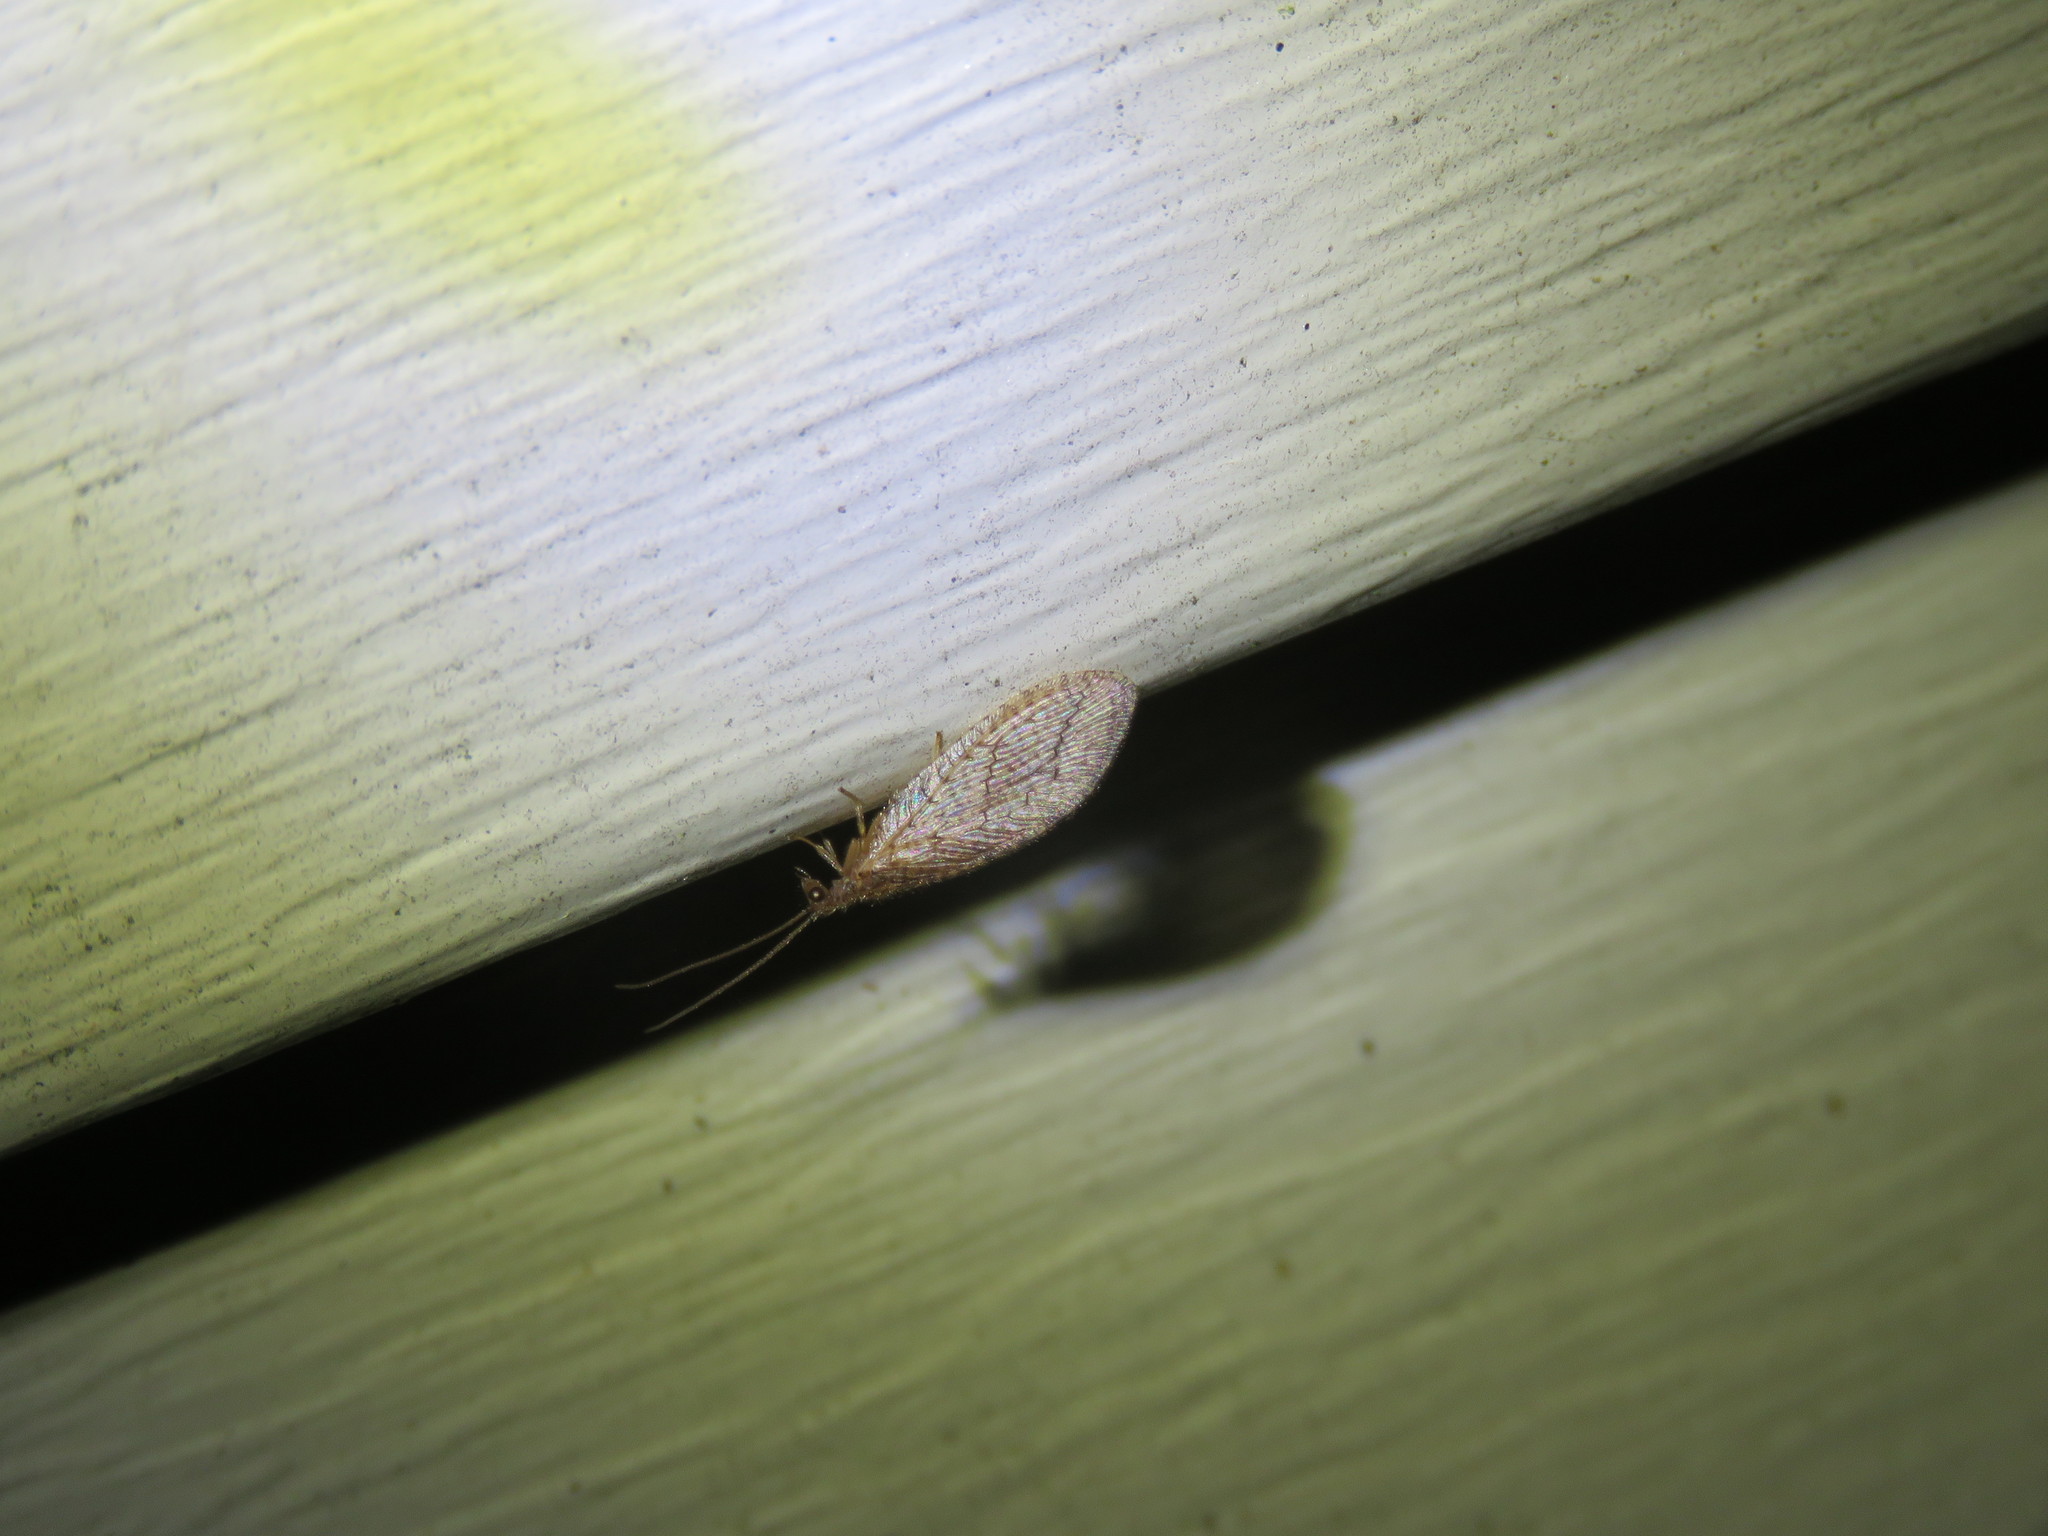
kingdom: Animalia
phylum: Arthropoda
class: Insecta
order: Neuroptera
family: Hemerobiidae
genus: Micromus
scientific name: Micromus posticus
